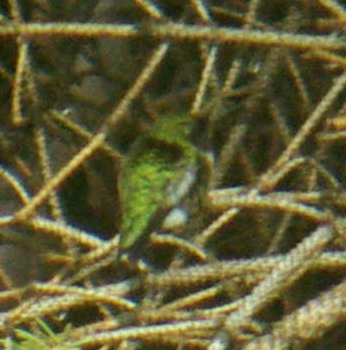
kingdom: Animalia
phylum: Chordata
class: Aves
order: Apodiformes
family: Trochilidae
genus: Archilochus
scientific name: Archilochus colubris
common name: Ruby-throated hummingbird
